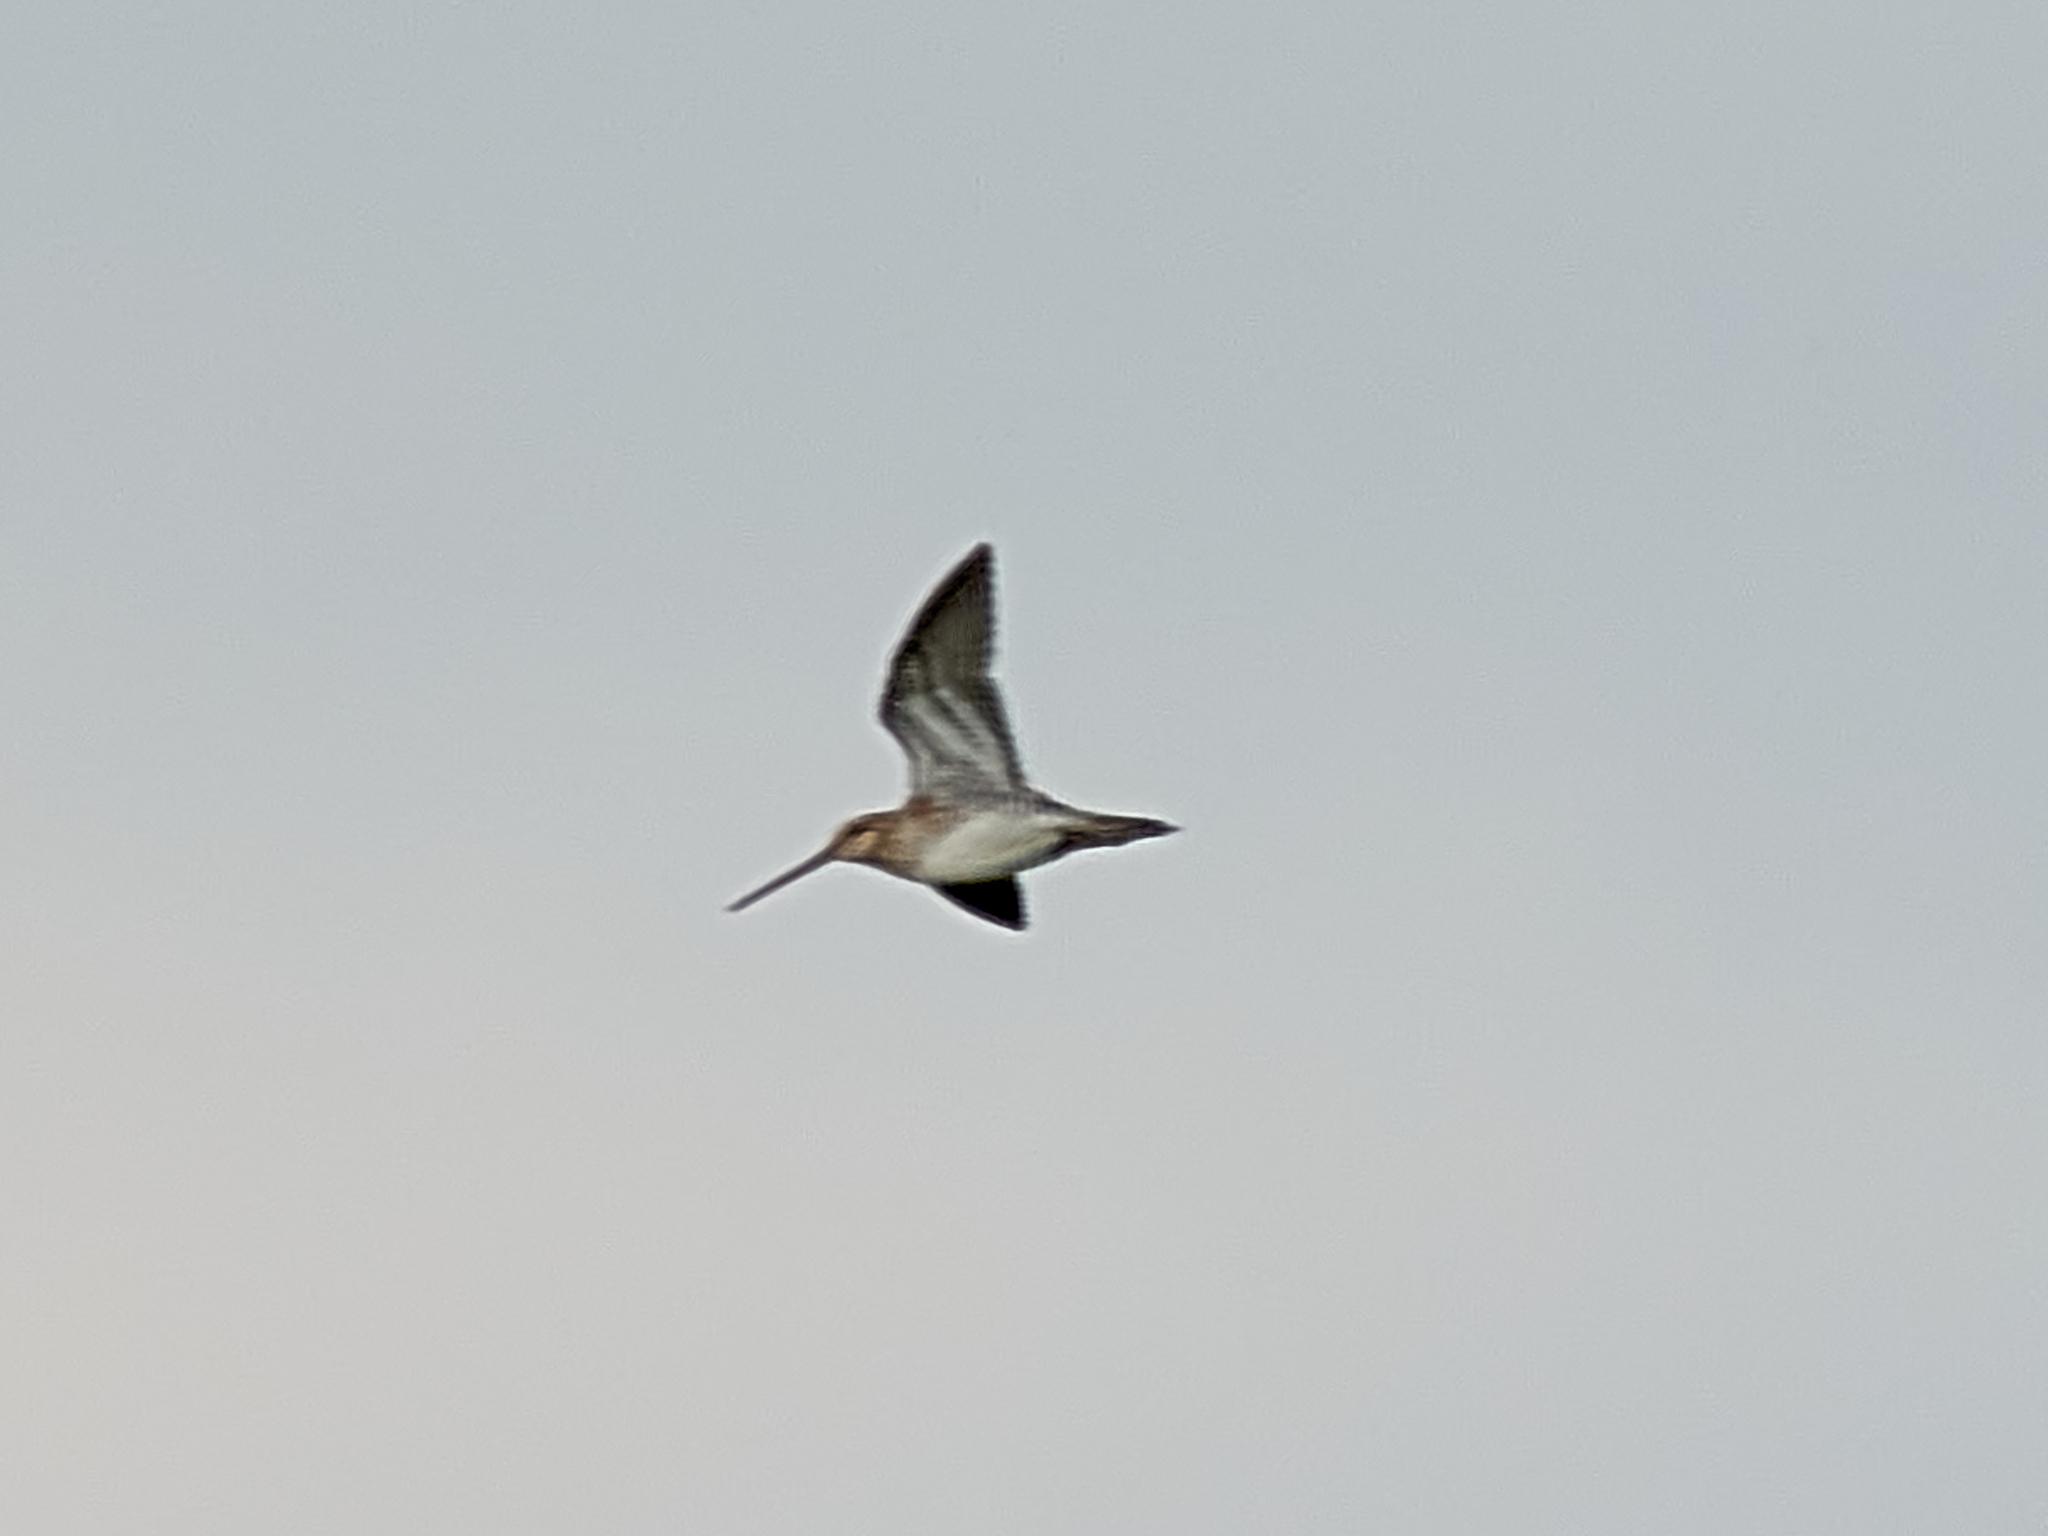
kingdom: Animalia
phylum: Chordata
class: Aves
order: Charadriiformes
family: Scolopacidae
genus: Gallinago
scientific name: Gallinago gallinago
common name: Common snipe
